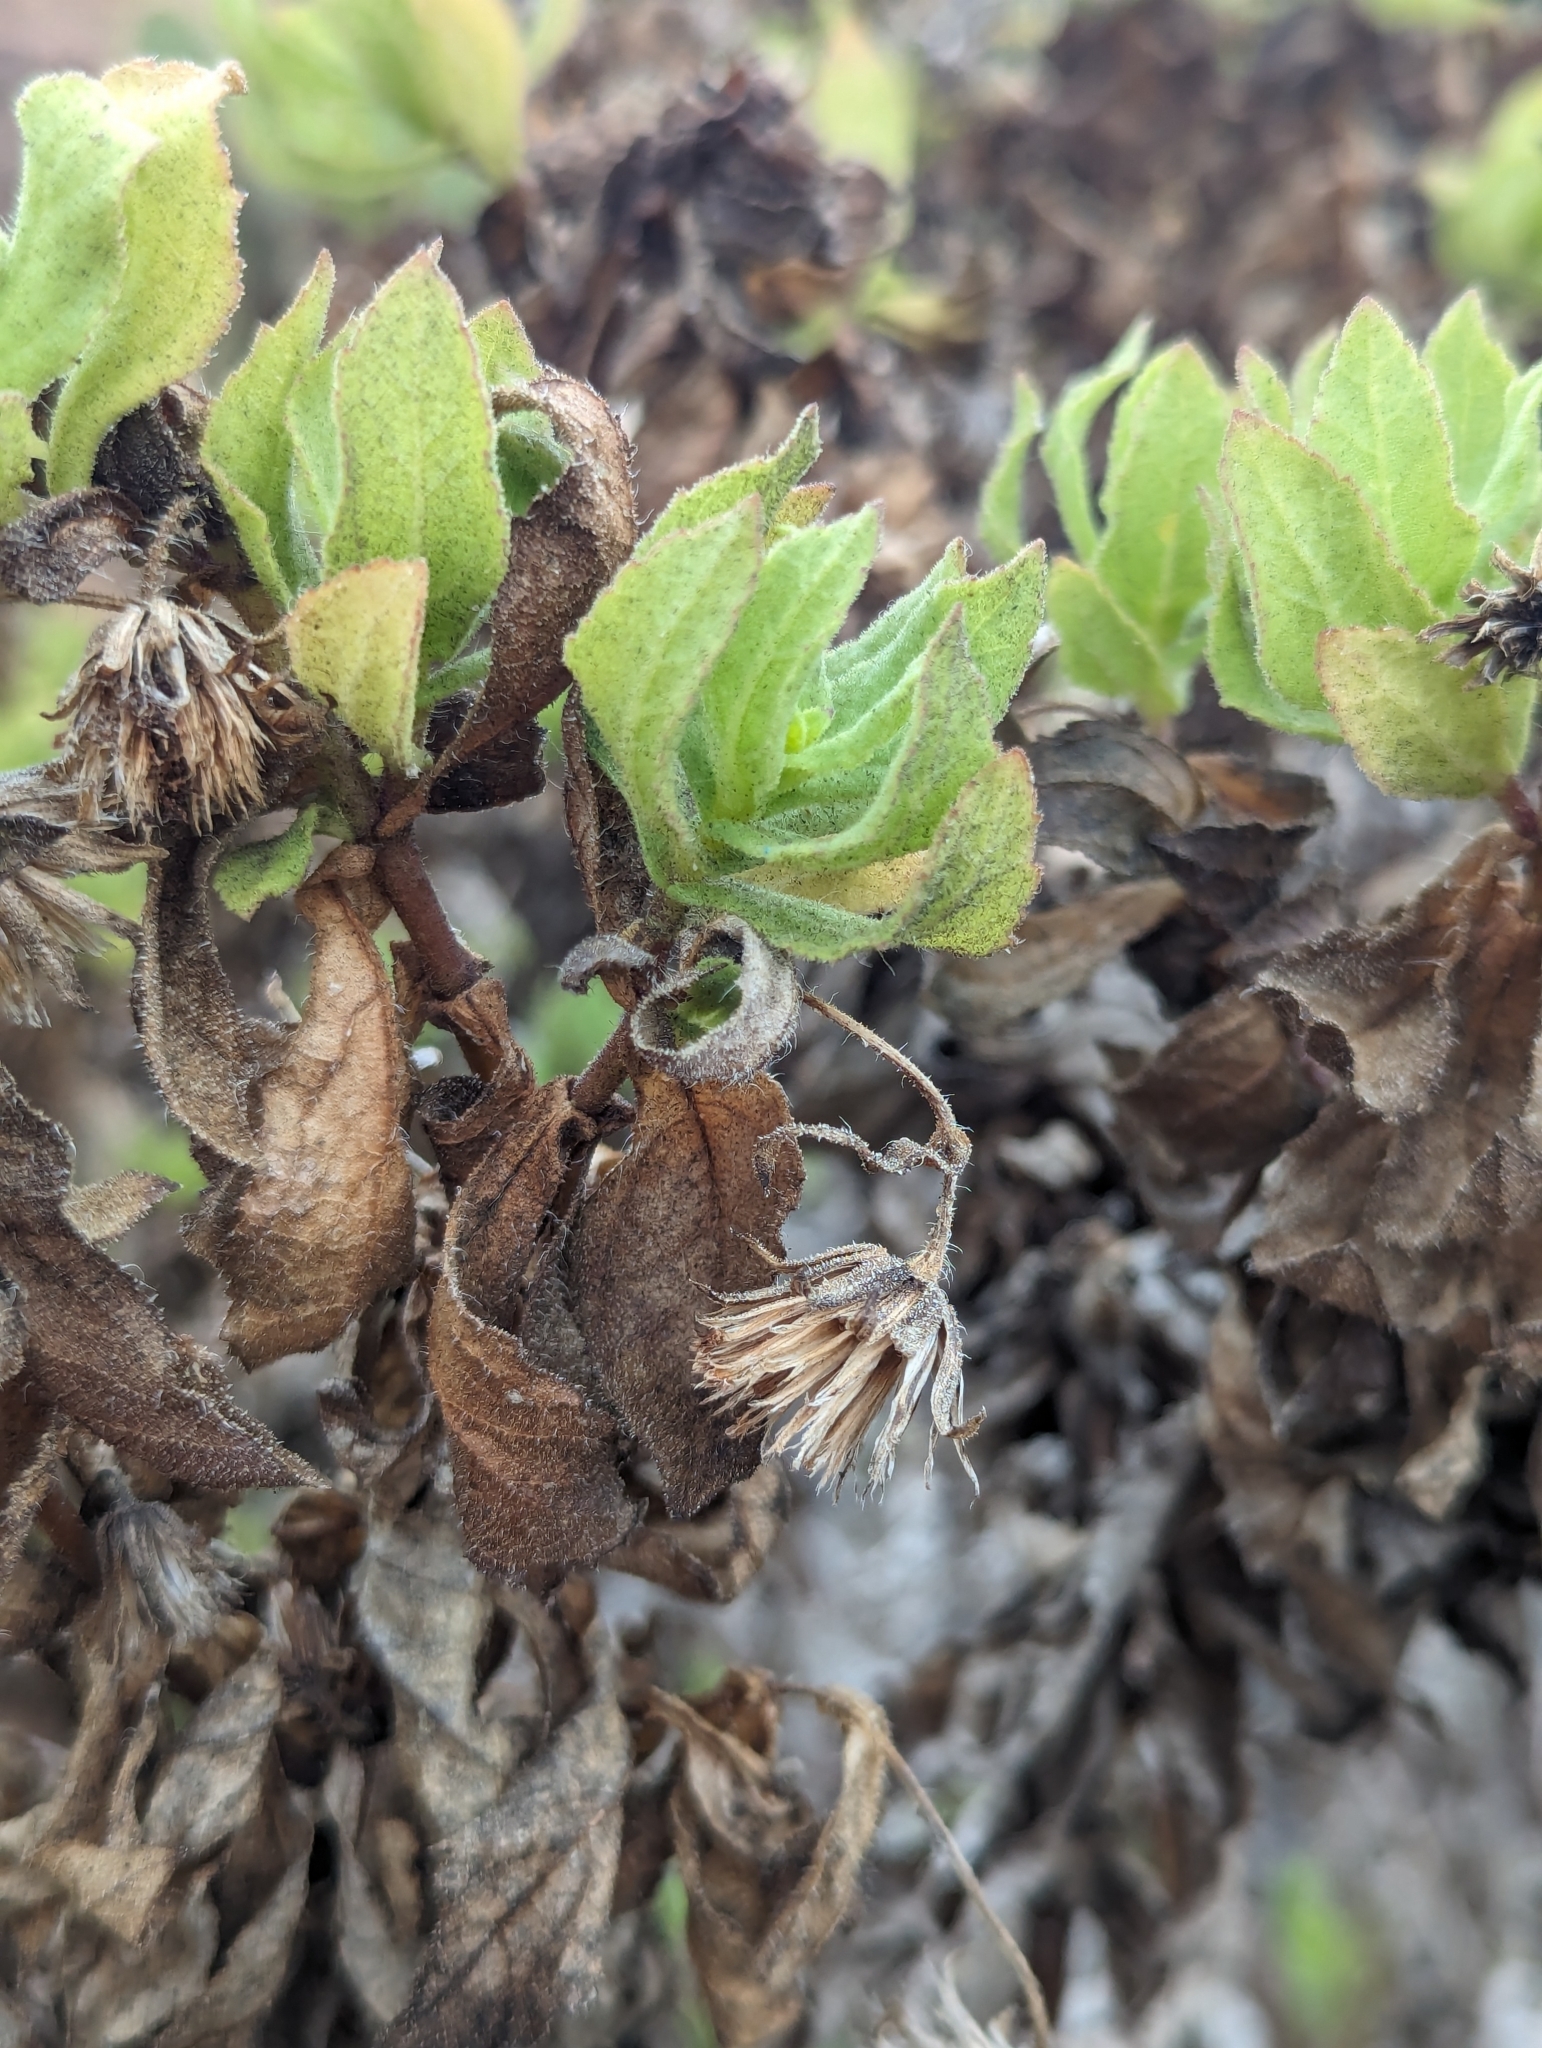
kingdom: Plantae
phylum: Tracheophyta
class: Magnoliopsida
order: Asterales
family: Asteraceae
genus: Scalesia
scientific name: Scalesia crockeri
